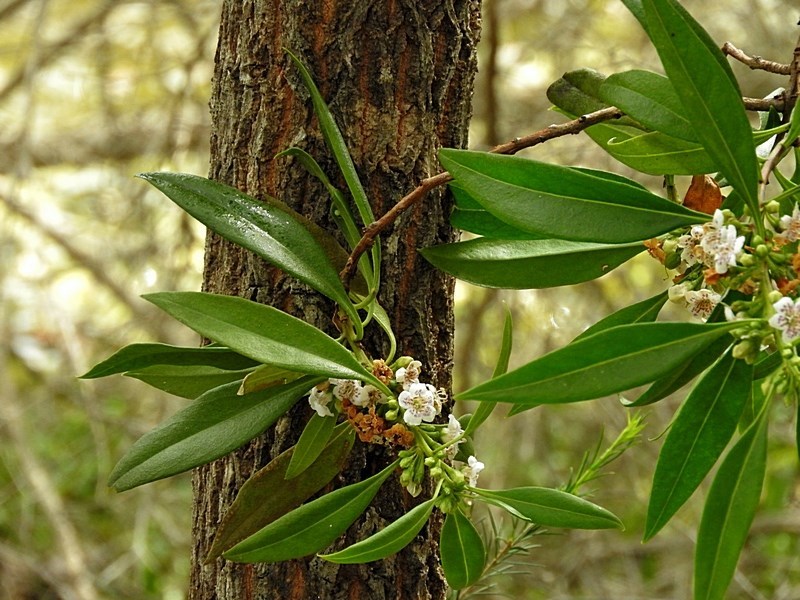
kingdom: Plantae
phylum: Tracheophyta
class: Magnoliopsida
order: Lamiales
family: Scrophulariaceae
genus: Myoporum
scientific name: Myoporum acuminatum
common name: Pointed boobialla
